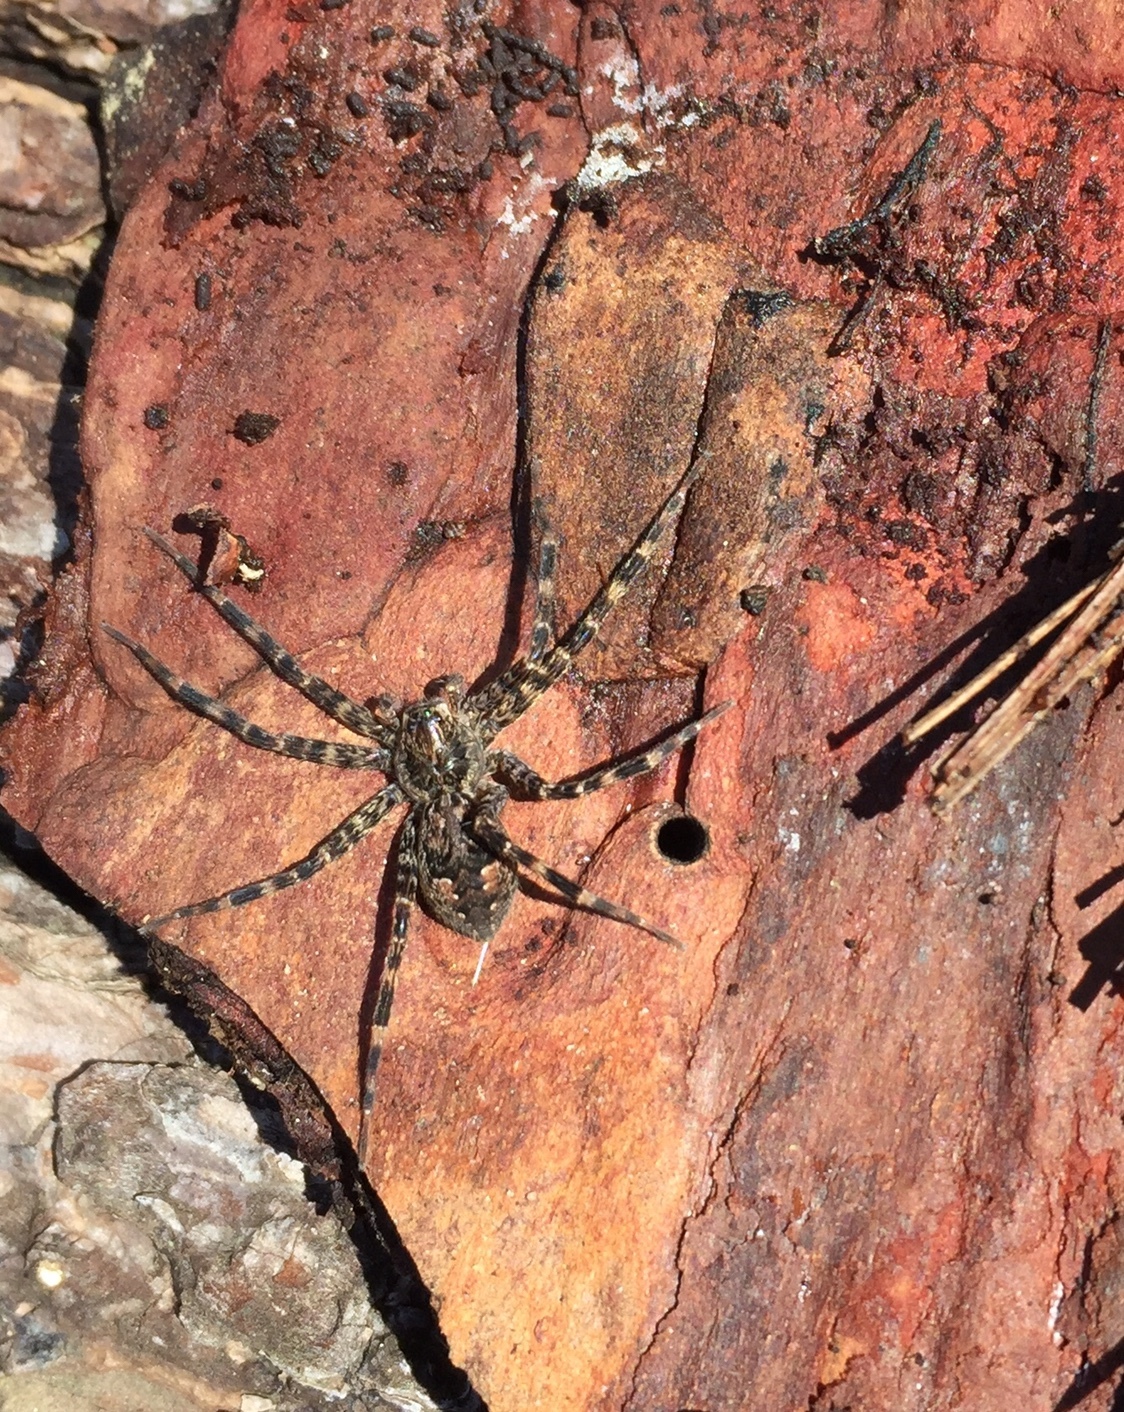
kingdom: Animalia
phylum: Arthropoda
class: Arachnida
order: Araneae
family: Pisauridae
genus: Dolomedes
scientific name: Dolomedes tenebrosus
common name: Dark fishing spider
